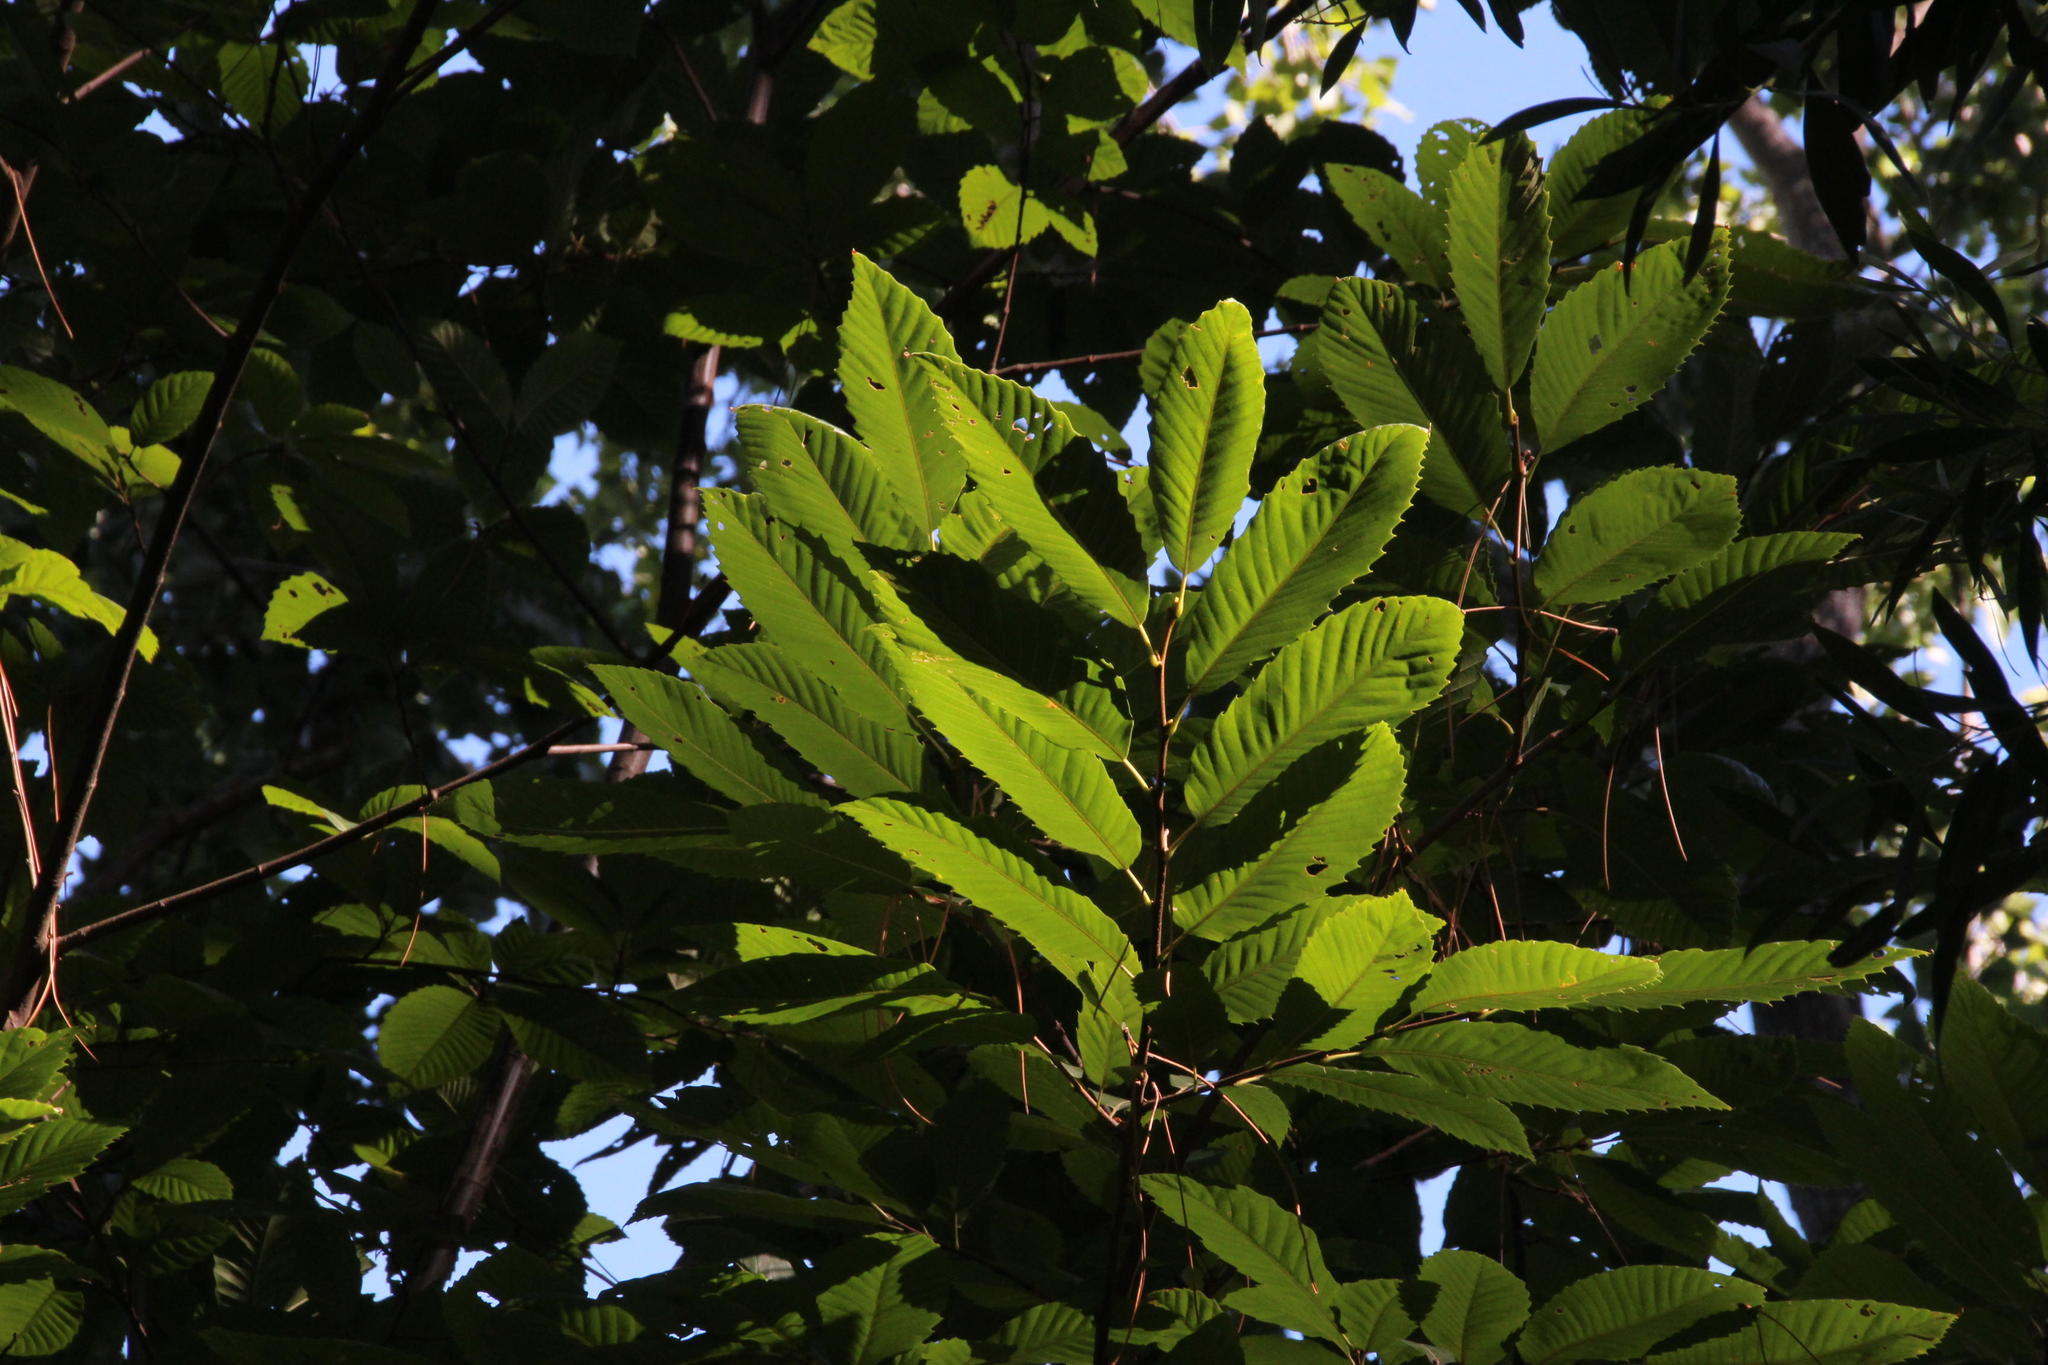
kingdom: Plantae
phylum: Tracheophyta
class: Magnoliopsida
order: Fagales
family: Fagaceae
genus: Castanea
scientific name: Castanea sativa
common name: Sweet chestnut
